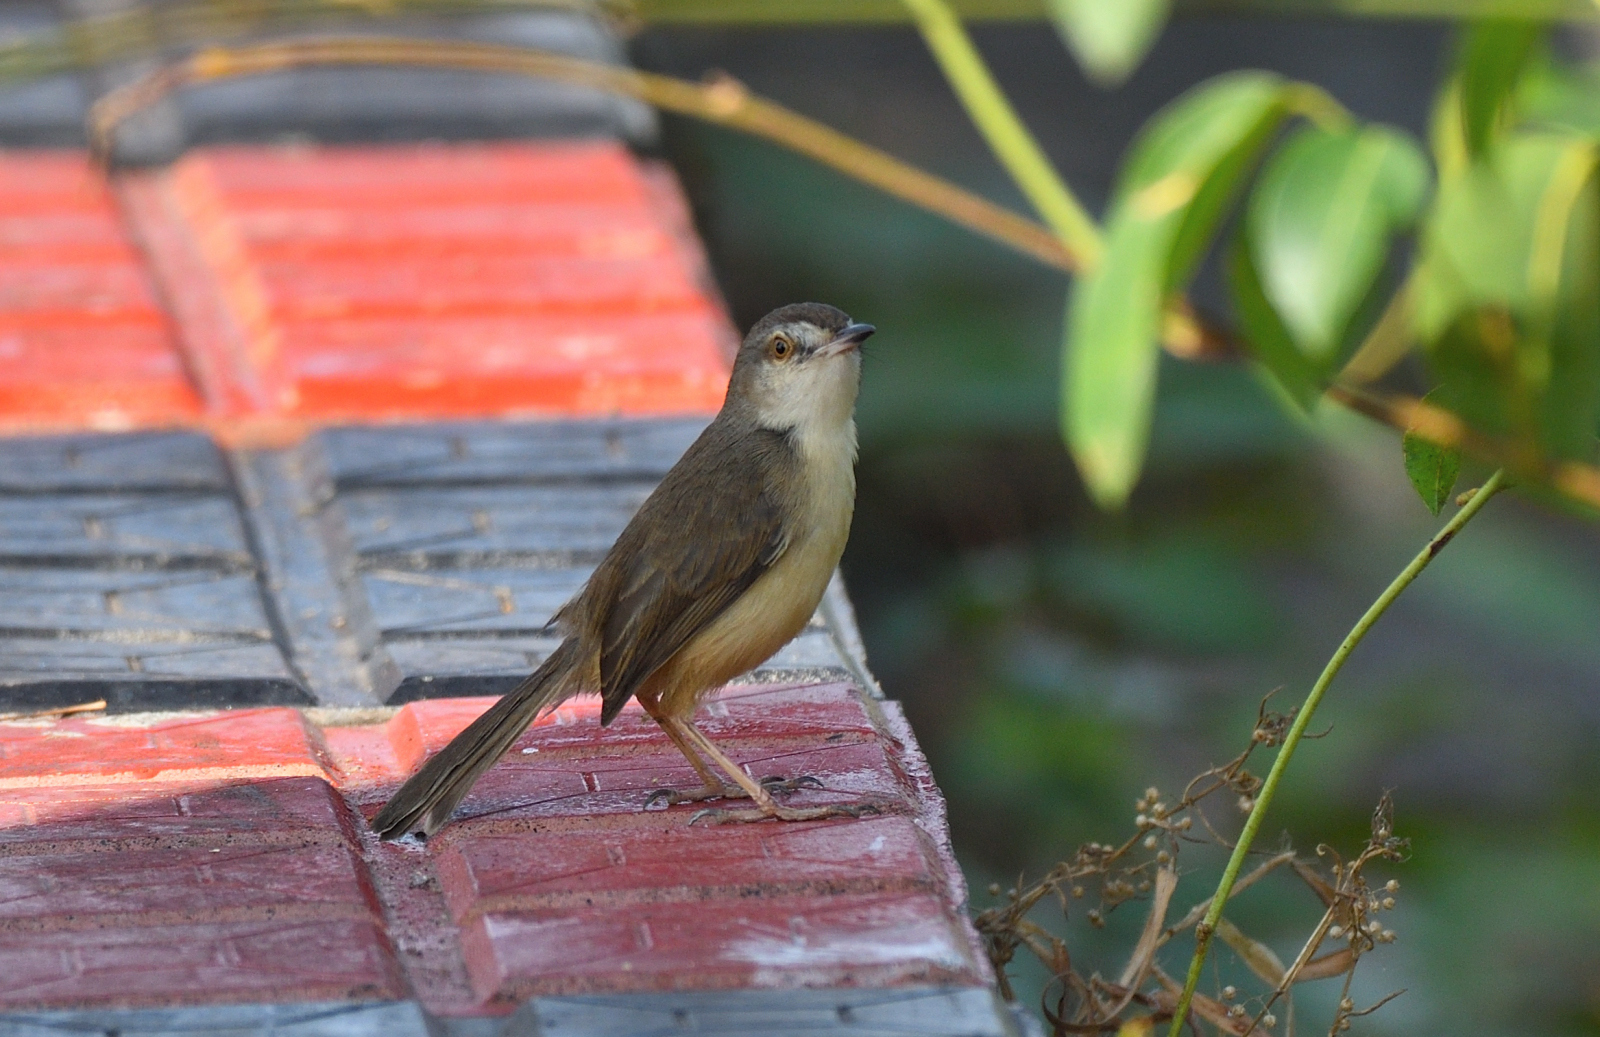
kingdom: Animalia
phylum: Chordata
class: Aves
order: Passeriformes
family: Cisticolidae
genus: Prinia
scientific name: Prinia inornata
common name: Plain prinia
